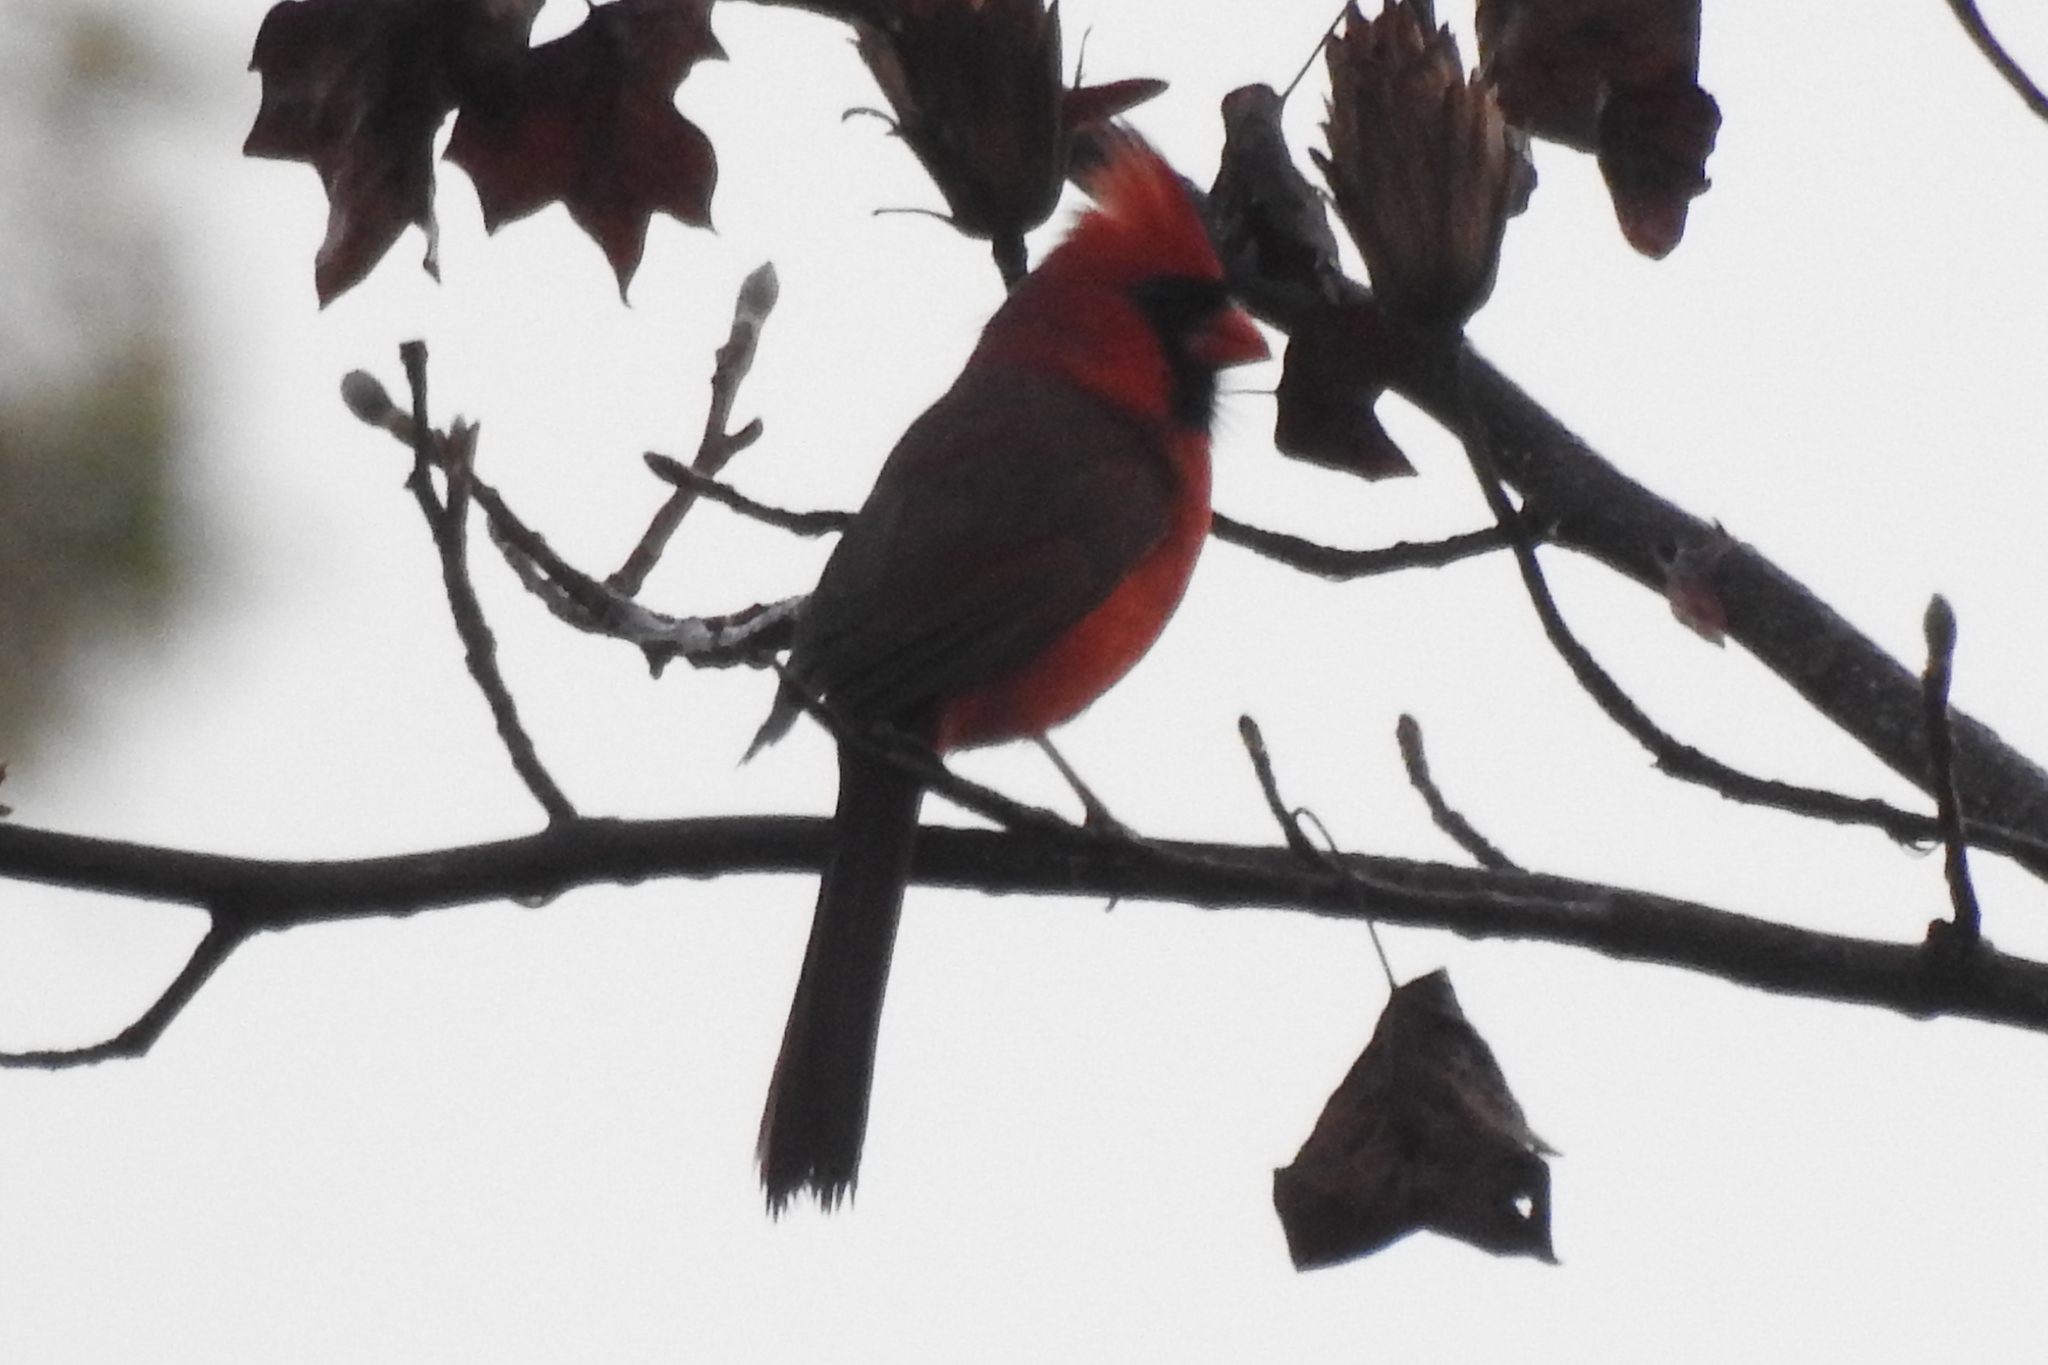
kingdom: Animalia
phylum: Chordata
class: Aves
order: Passeriformes
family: Cardinalidae
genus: Cardinalis
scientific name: Cardinalis cardinalis
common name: Northern cardinal
